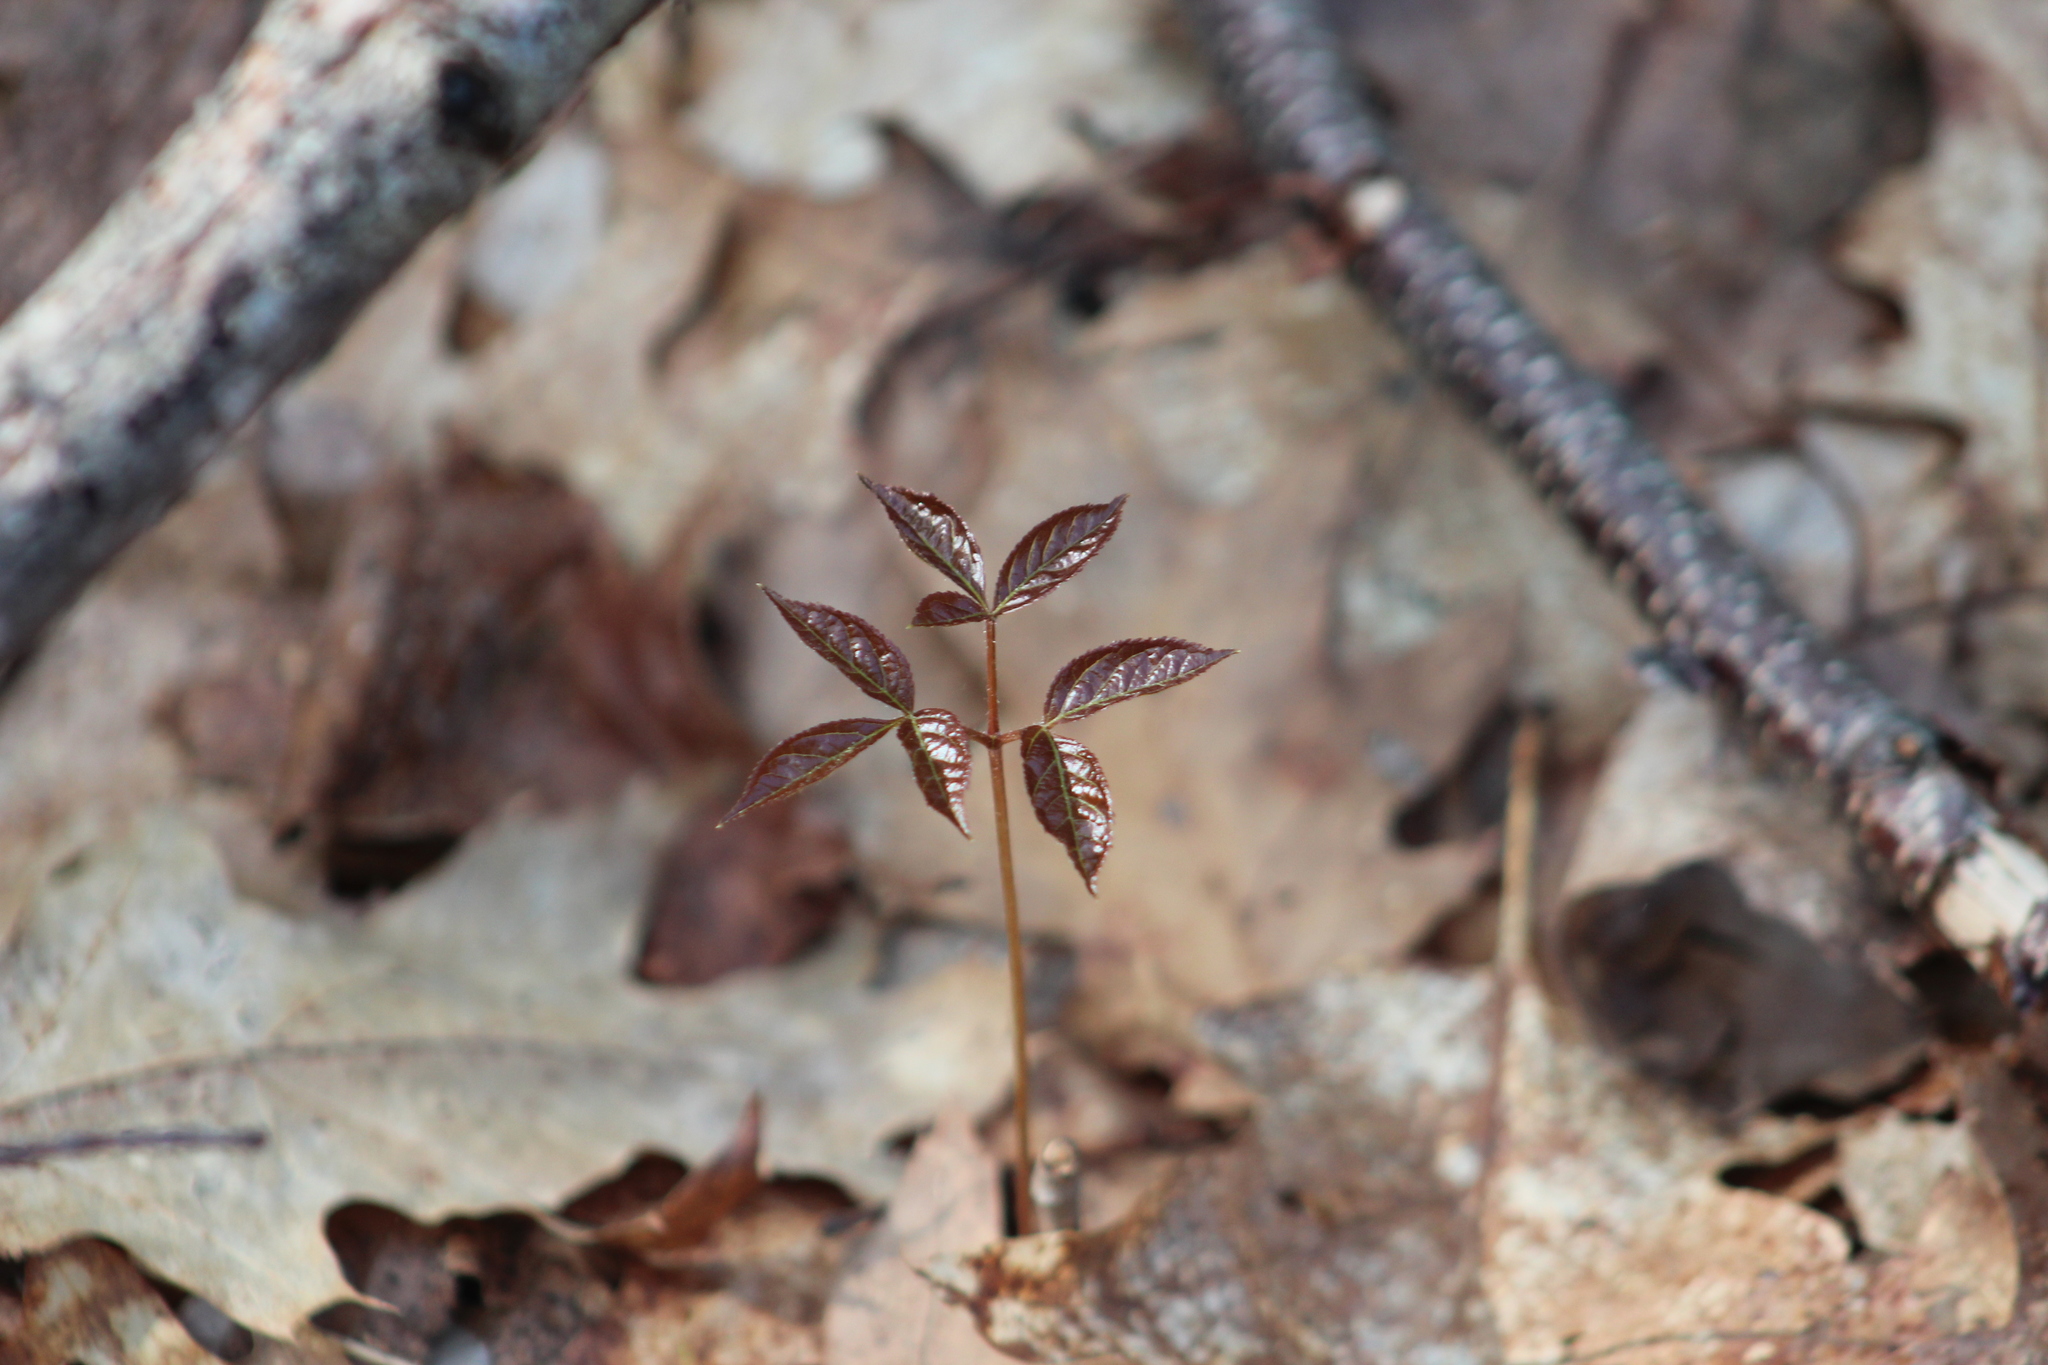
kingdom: Plantae
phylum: Tracheophyta
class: Magnoliopsida
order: Apiales
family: Araliaceae
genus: Aralia
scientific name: Aralia nudicaulis
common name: Wild sarsaparilla
